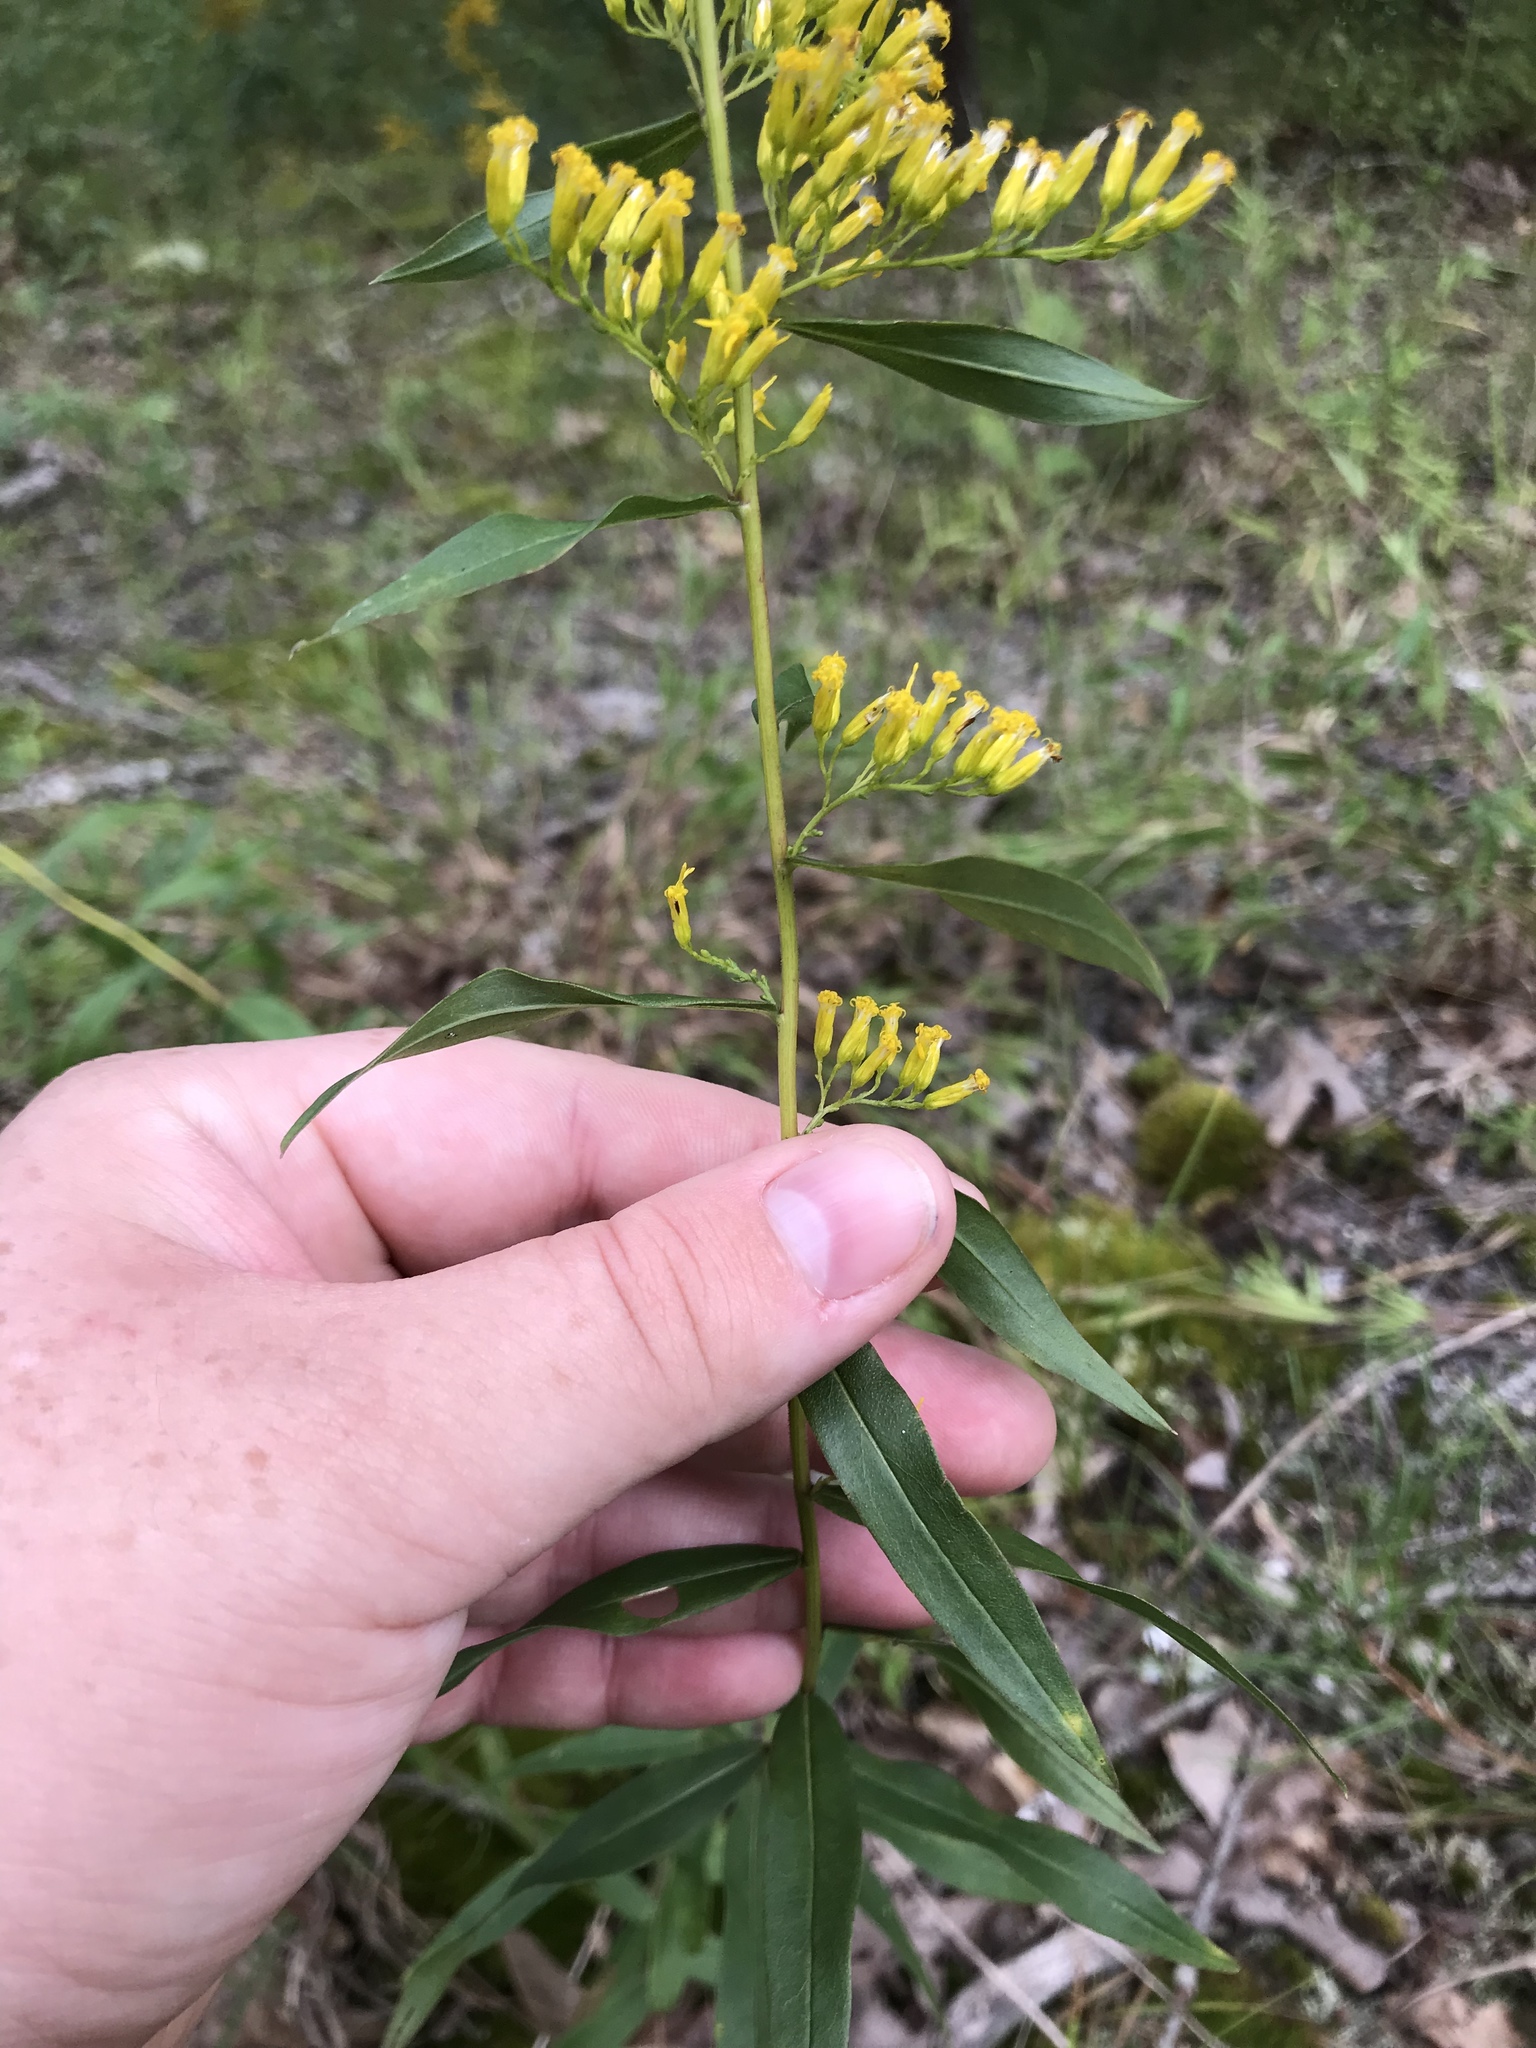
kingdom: Plantae
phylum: Tracheophyta
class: Magnoliopsida
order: Asterales
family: Asteraceae
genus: Solidago
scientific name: Solidago odora
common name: Anise-scented goldenrod
